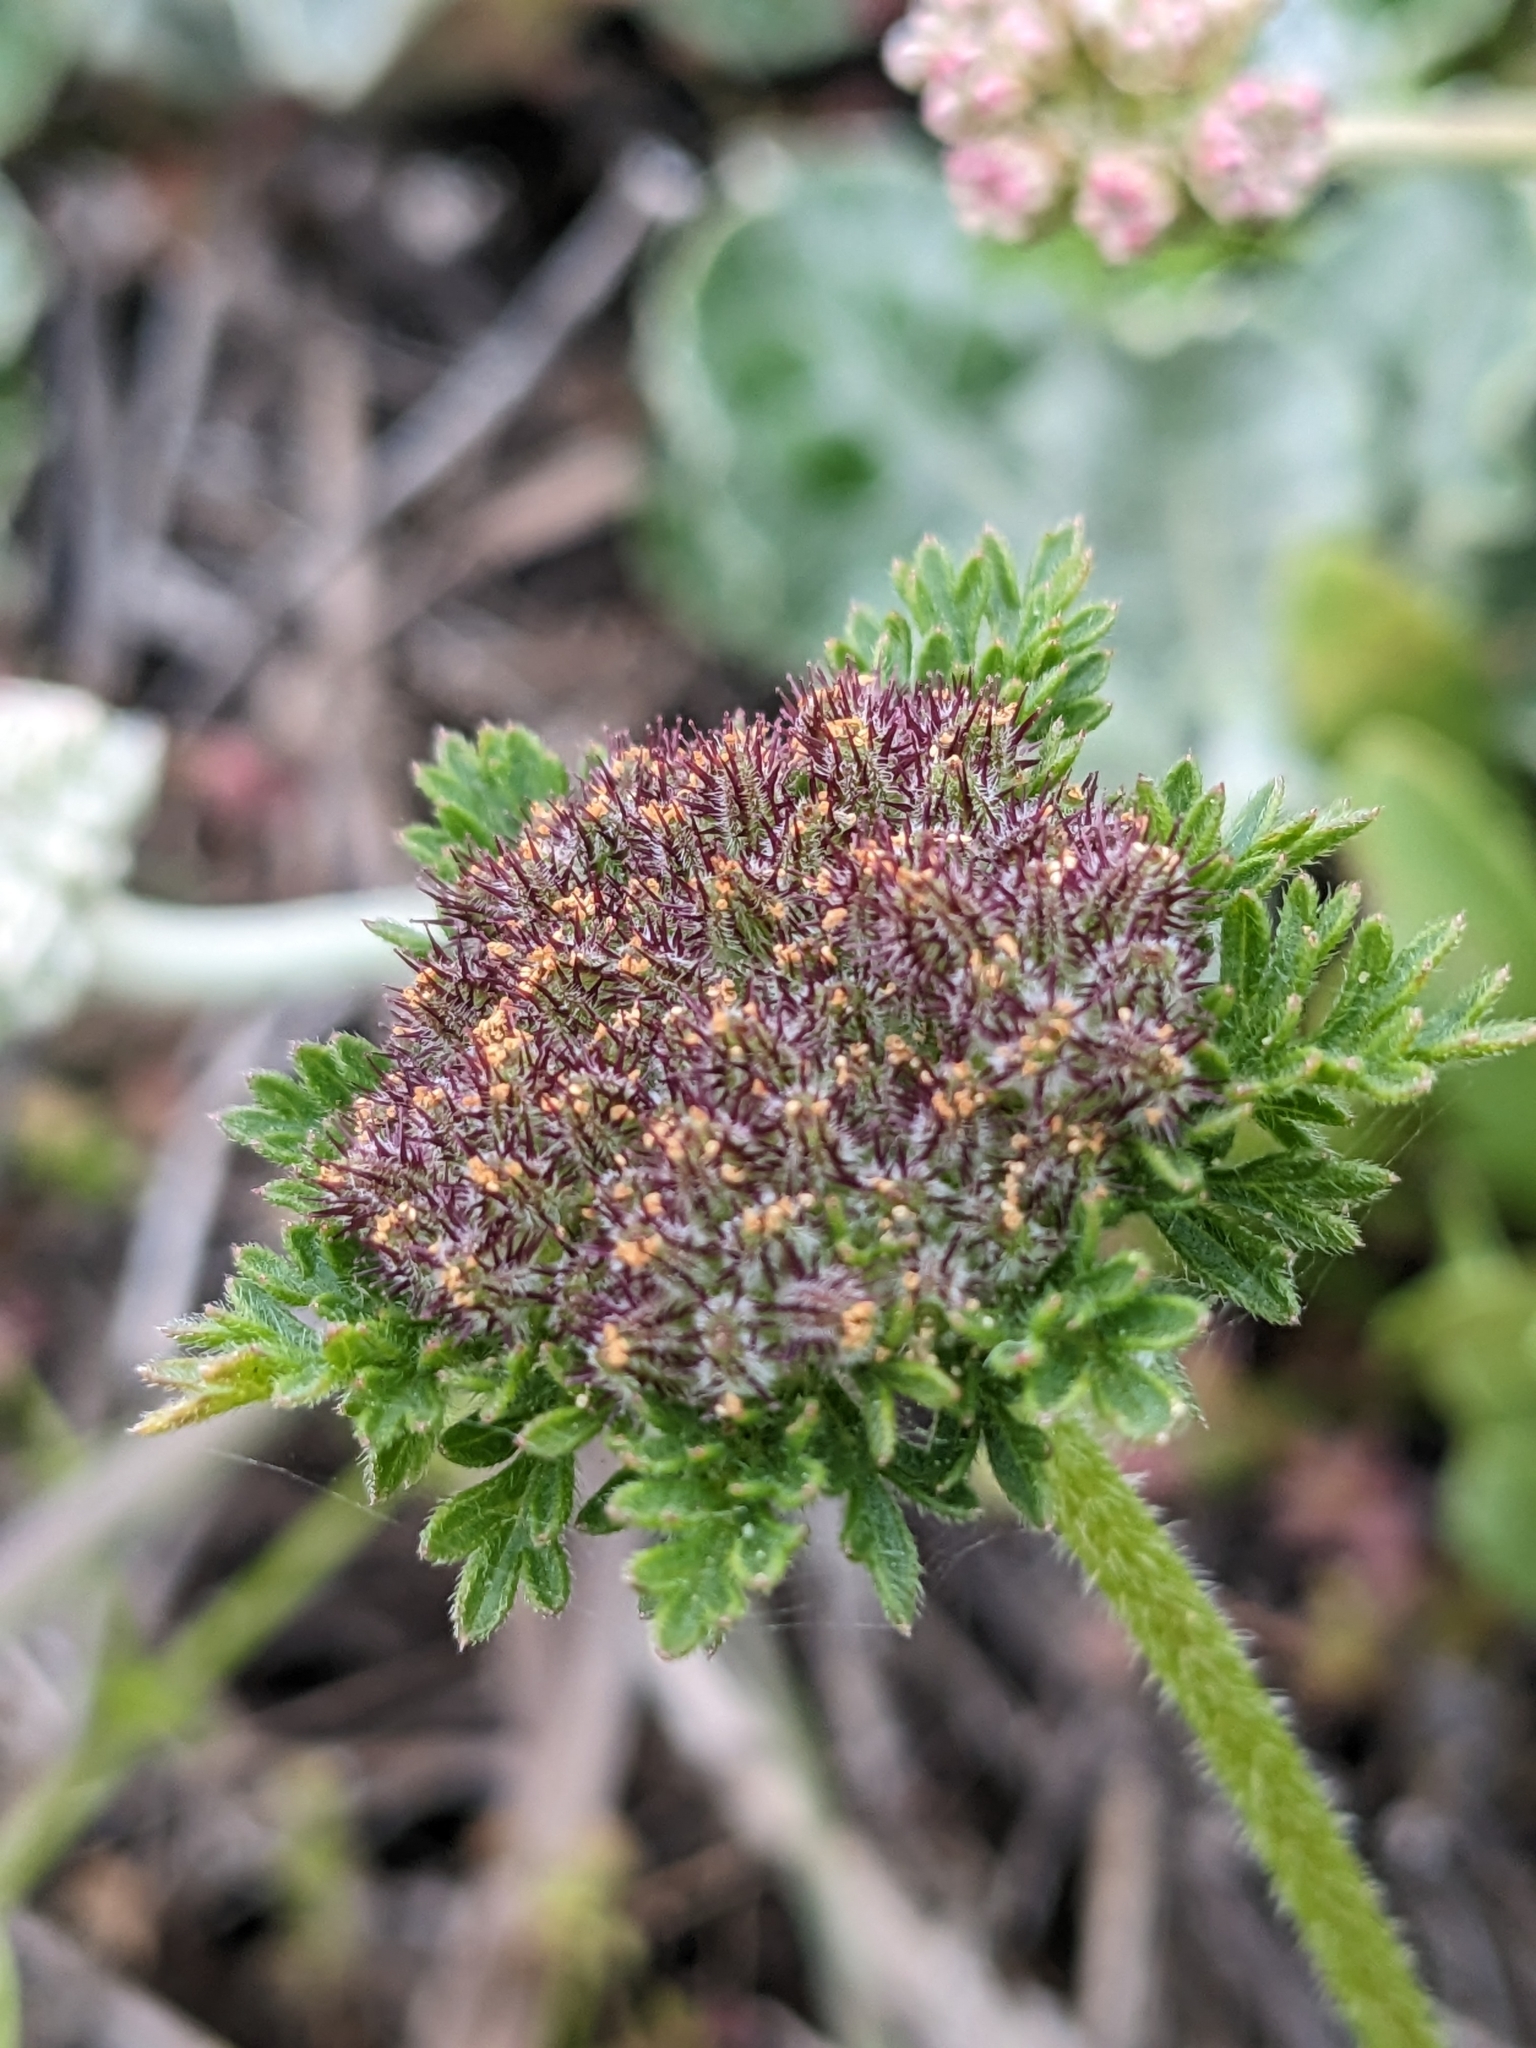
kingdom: Plantae
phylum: Tracheophyta
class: Magnoliopsida
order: Apiales
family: Apiaceae
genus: Daucus
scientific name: Daucus pusillus
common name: Southwest wild carrot
